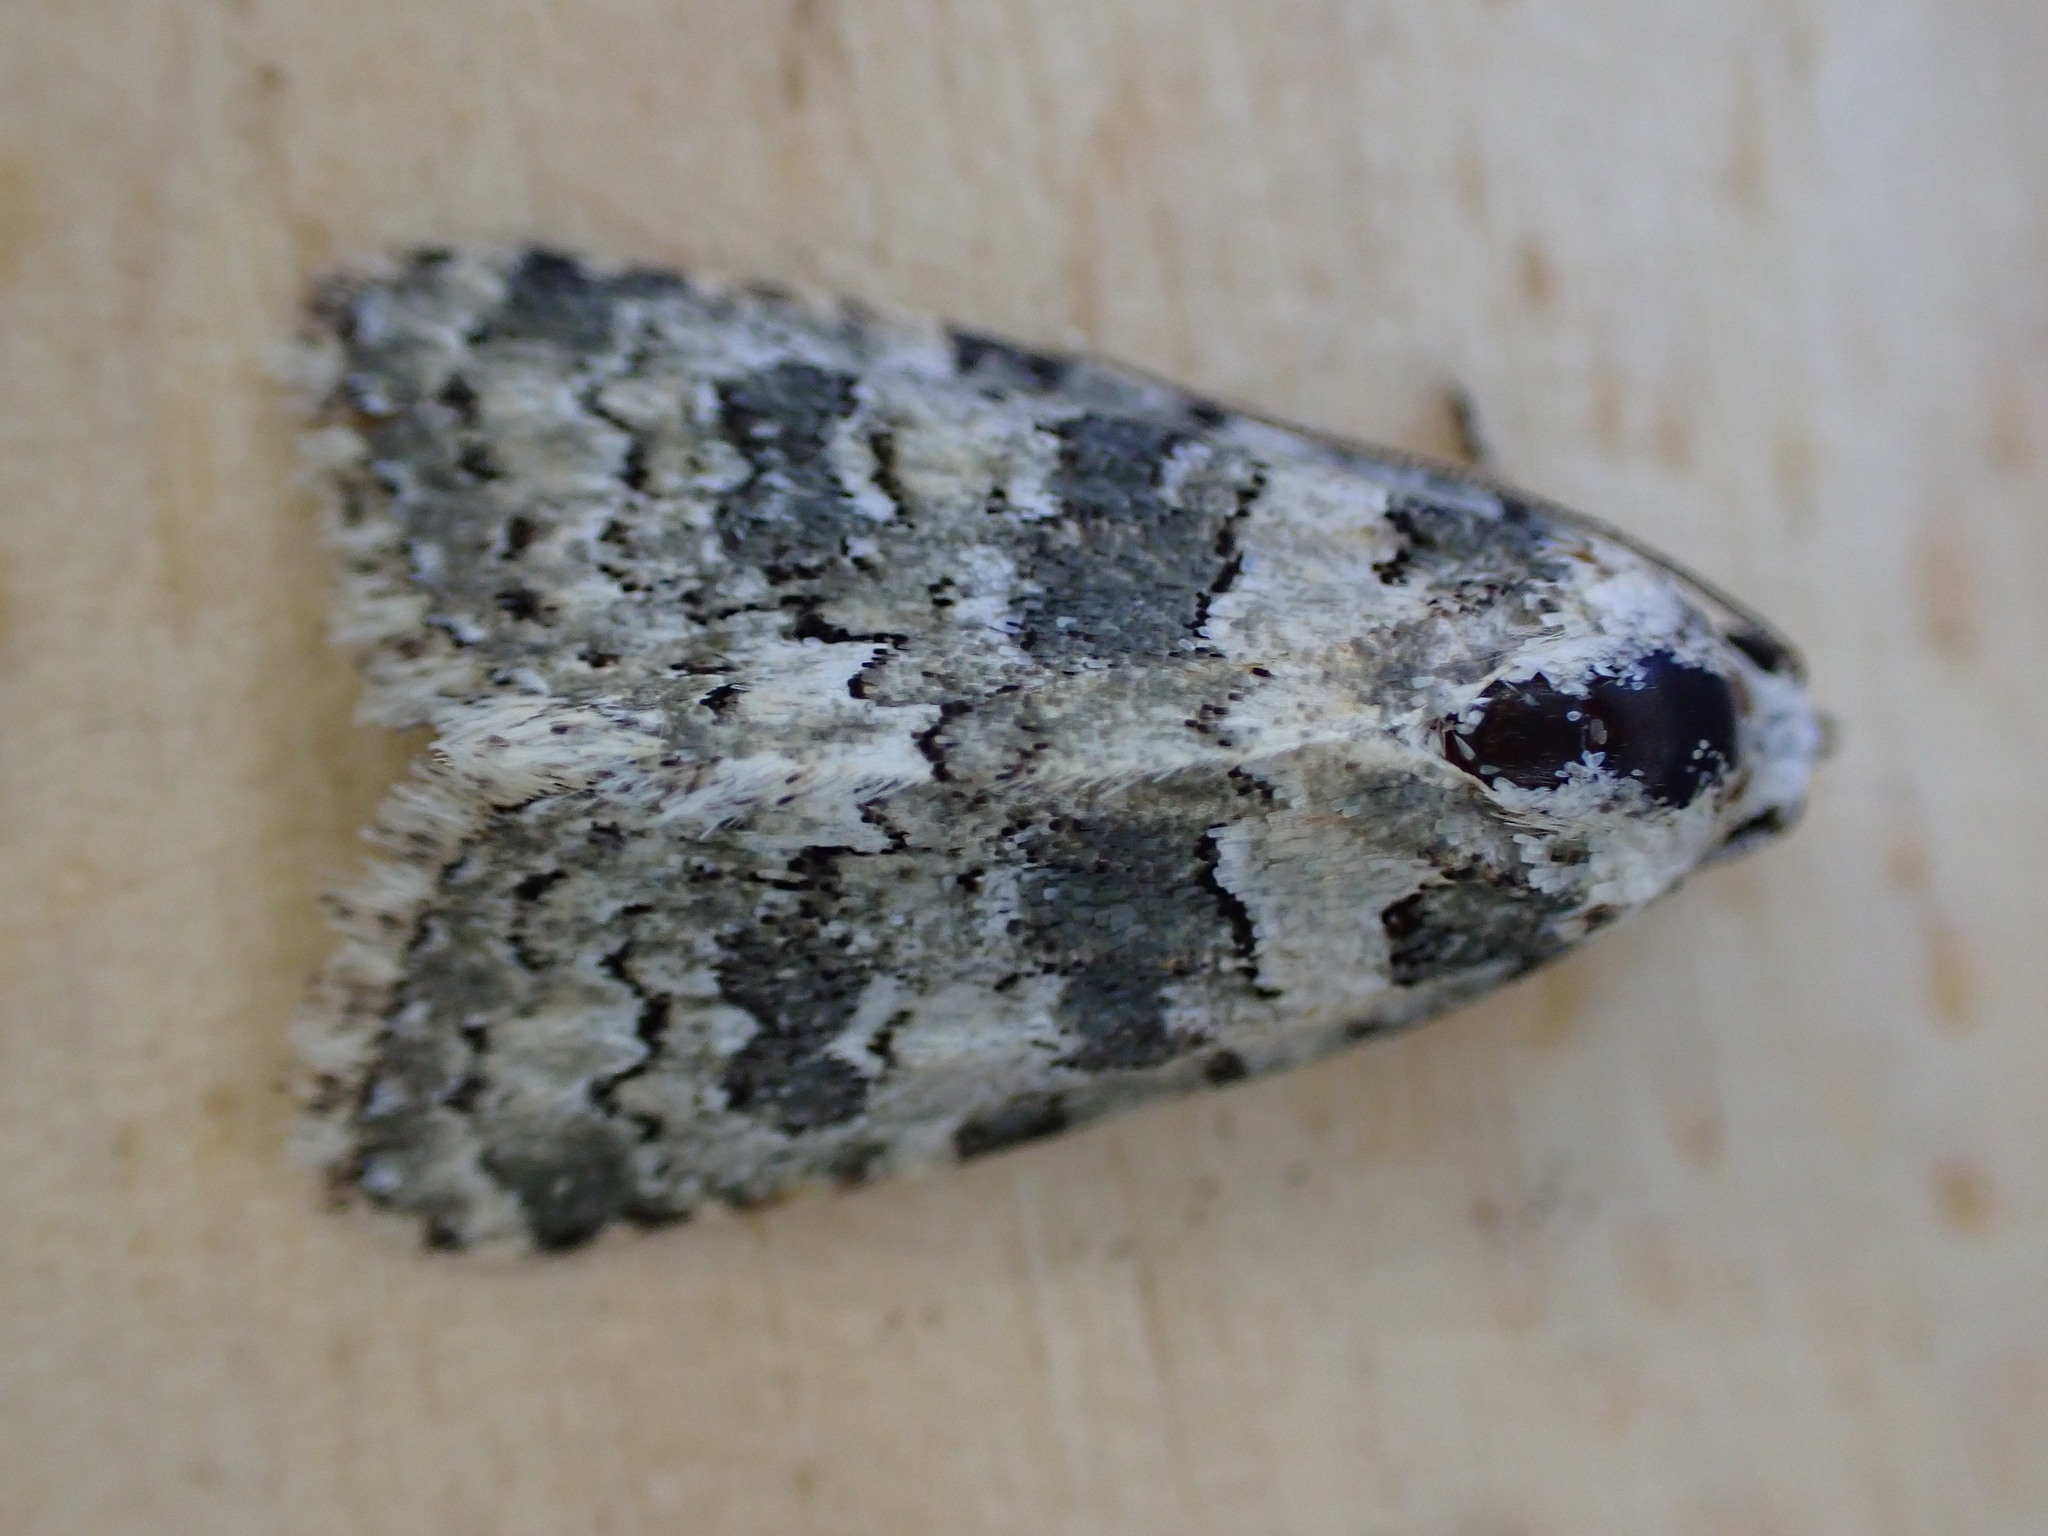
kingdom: Animalia
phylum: Arthropoda
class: Insecta
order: Lepidoptera
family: Noctuidae
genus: Bryophila
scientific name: Bryophila domestica
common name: Marbled beauty
